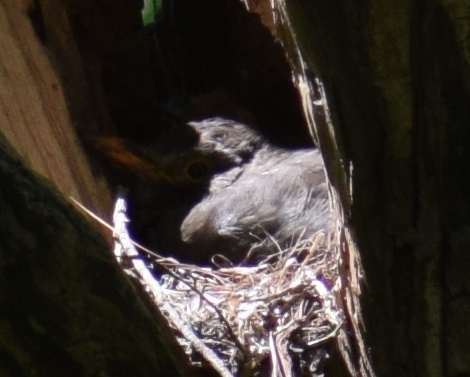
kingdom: Animalia
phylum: Chordata
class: Aves
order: Passeriformes
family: Turdidae
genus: Turdus
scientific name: Turdus merula
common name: Common blackbird
